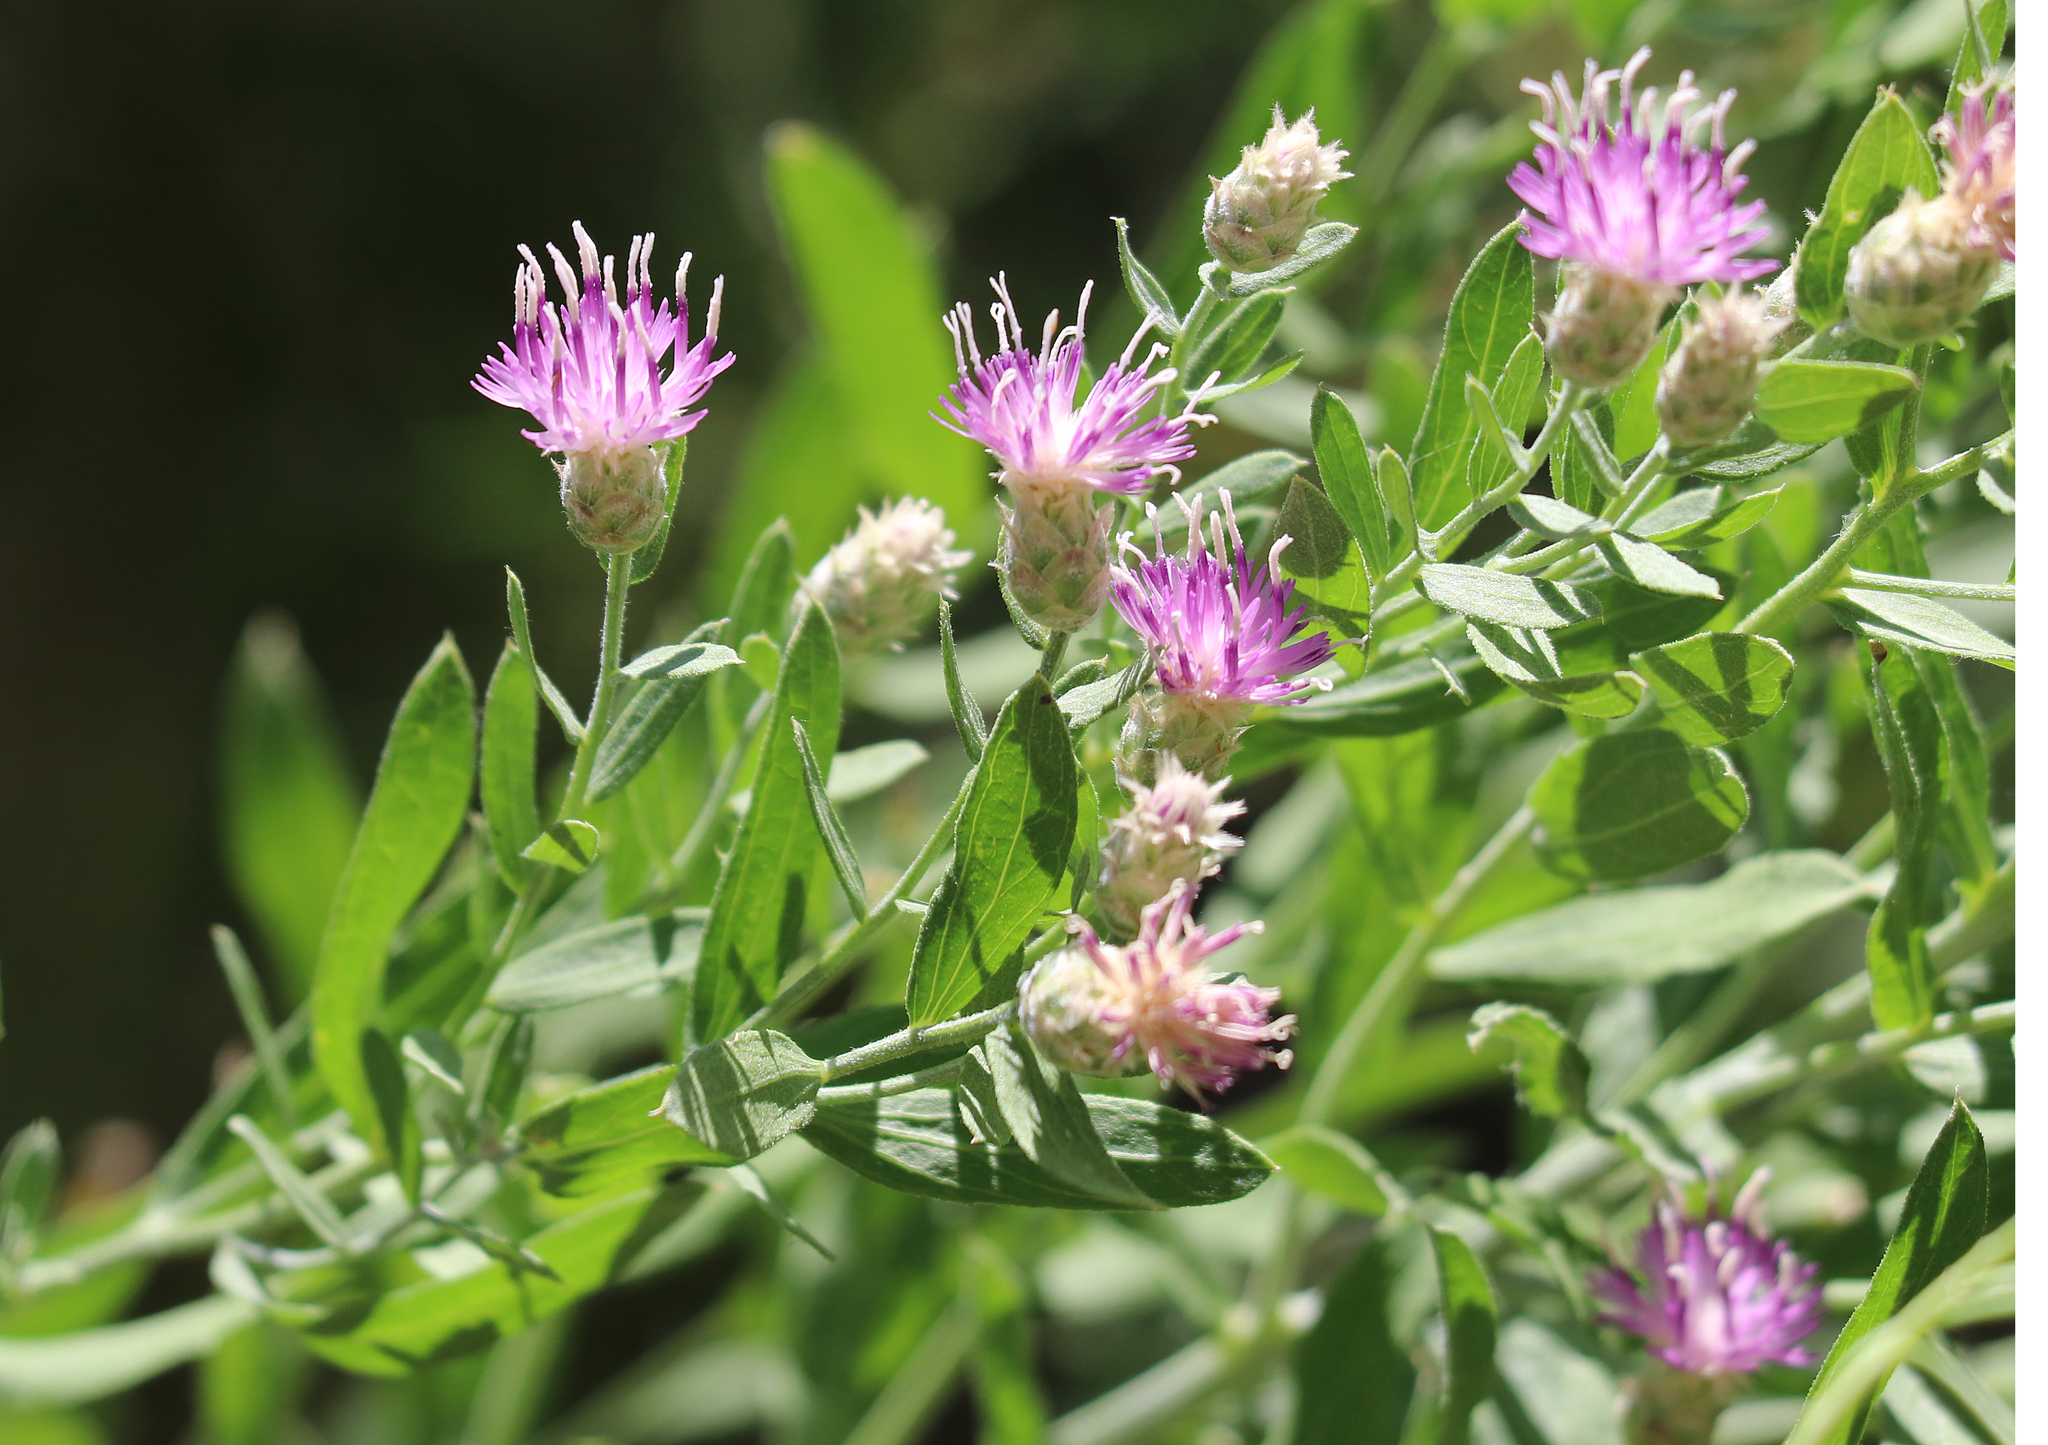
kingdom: Plantae
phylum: Tracheophyta
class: Magnoliopsida
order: Asterales
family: Asteraceae
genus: Leuzea
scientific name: Leuzea repens
